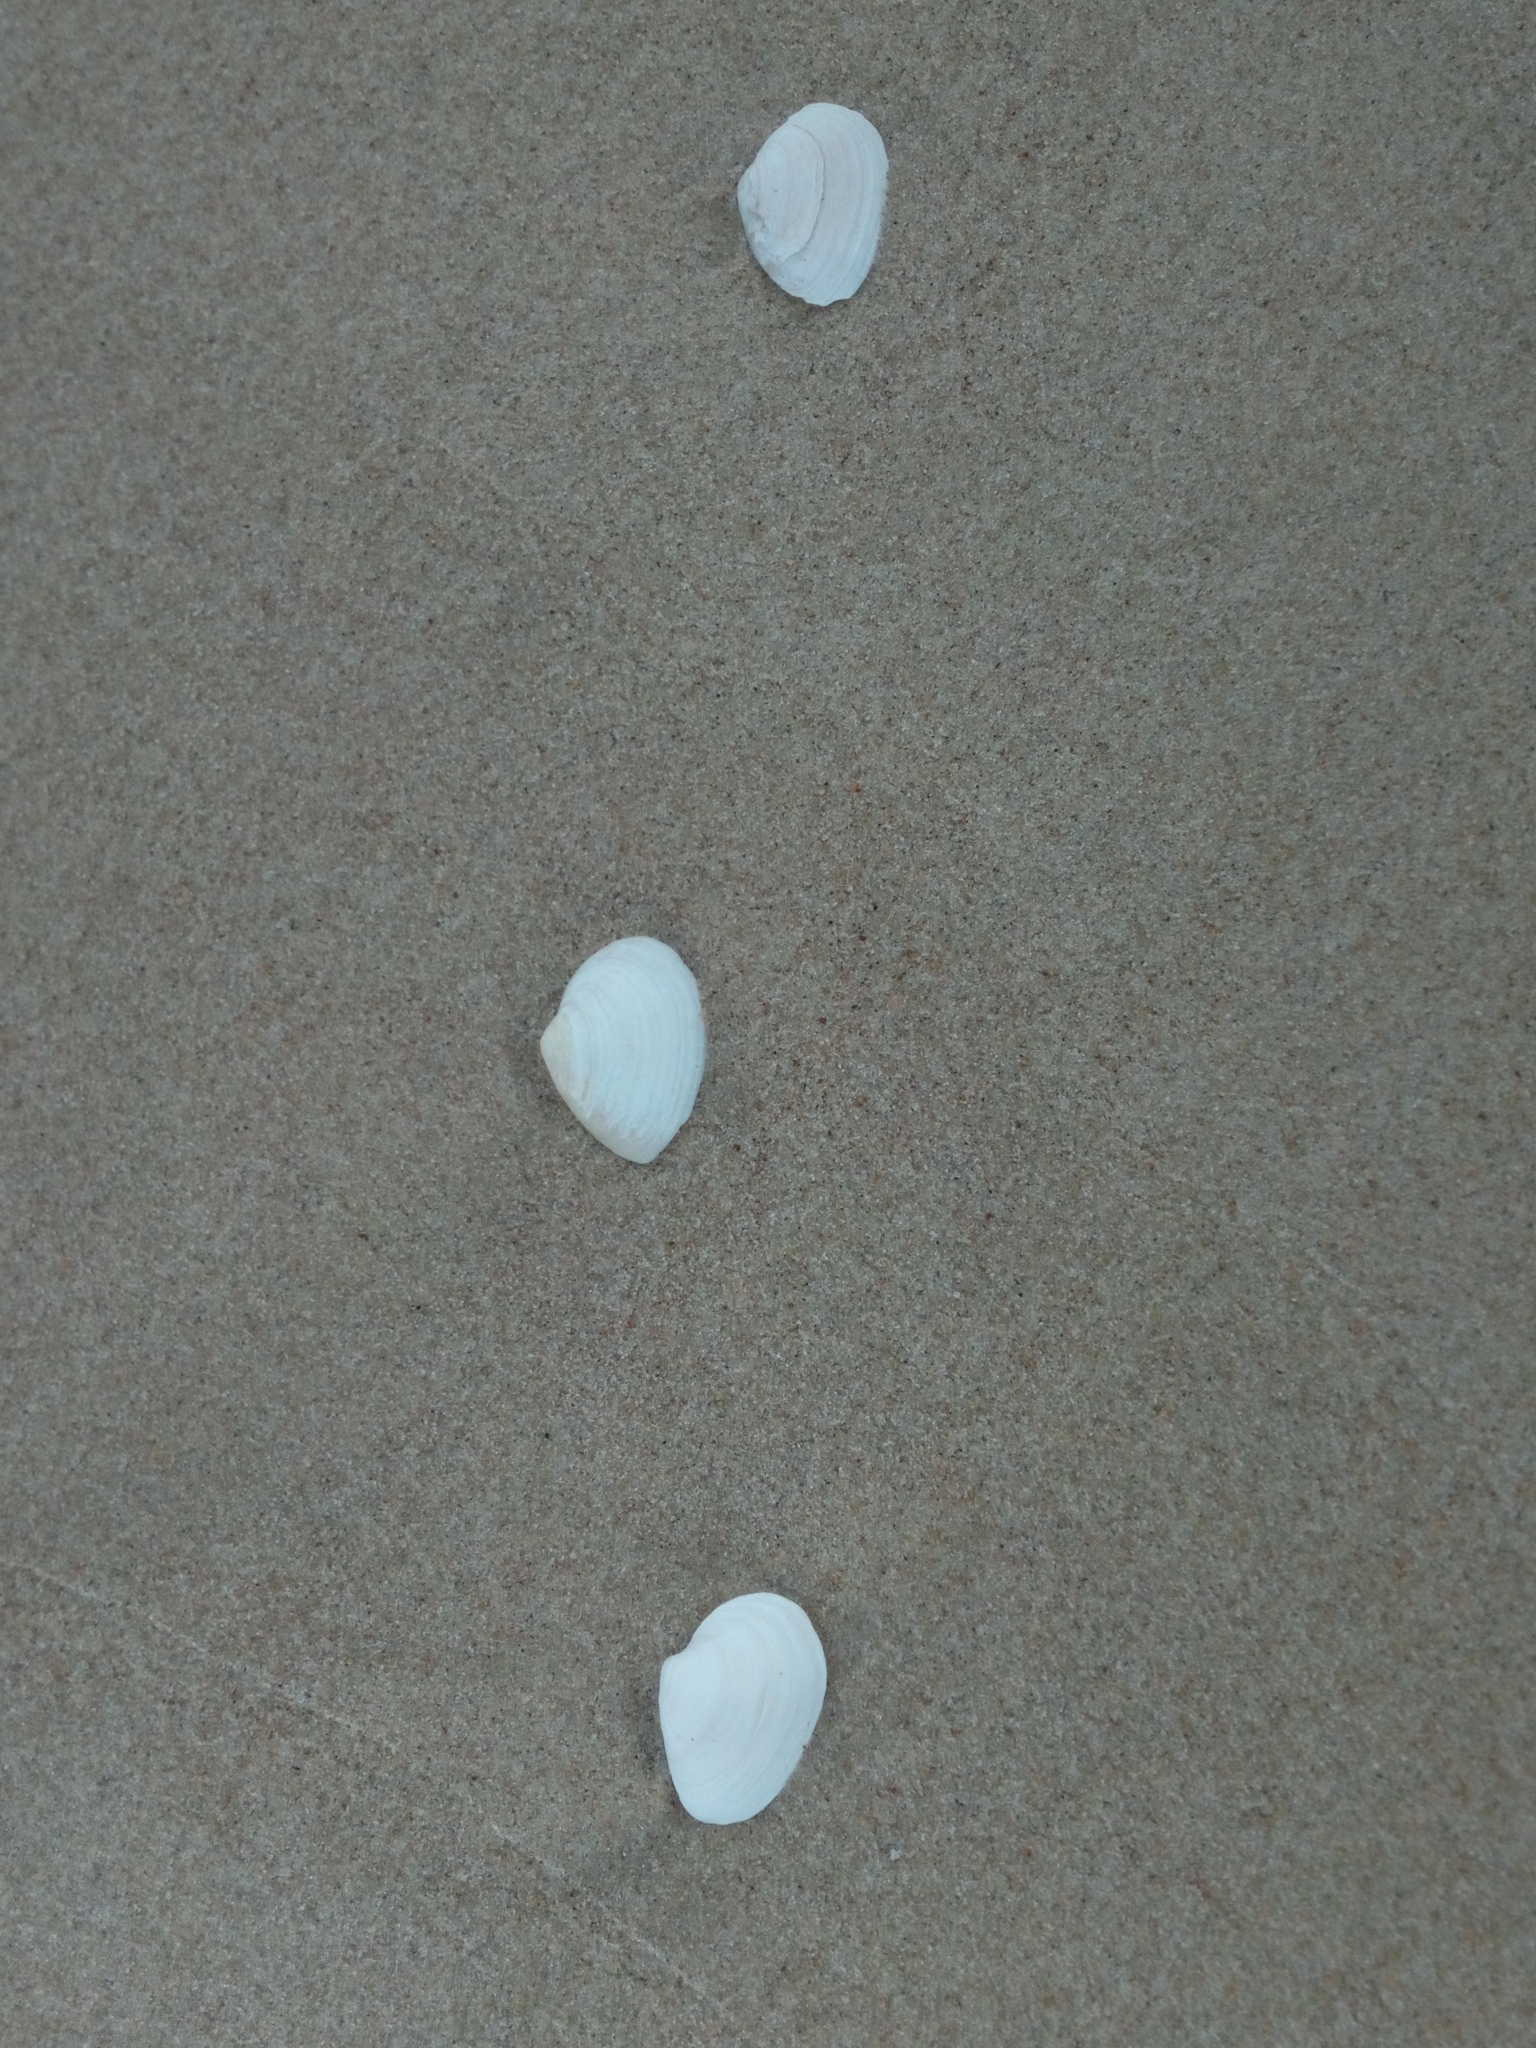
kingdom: Animalia
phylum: Mollusca
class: Bivalvia
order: Myida
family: Myidae
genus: Mya
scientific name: Mya arenaria
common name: Soft-shelled clam
